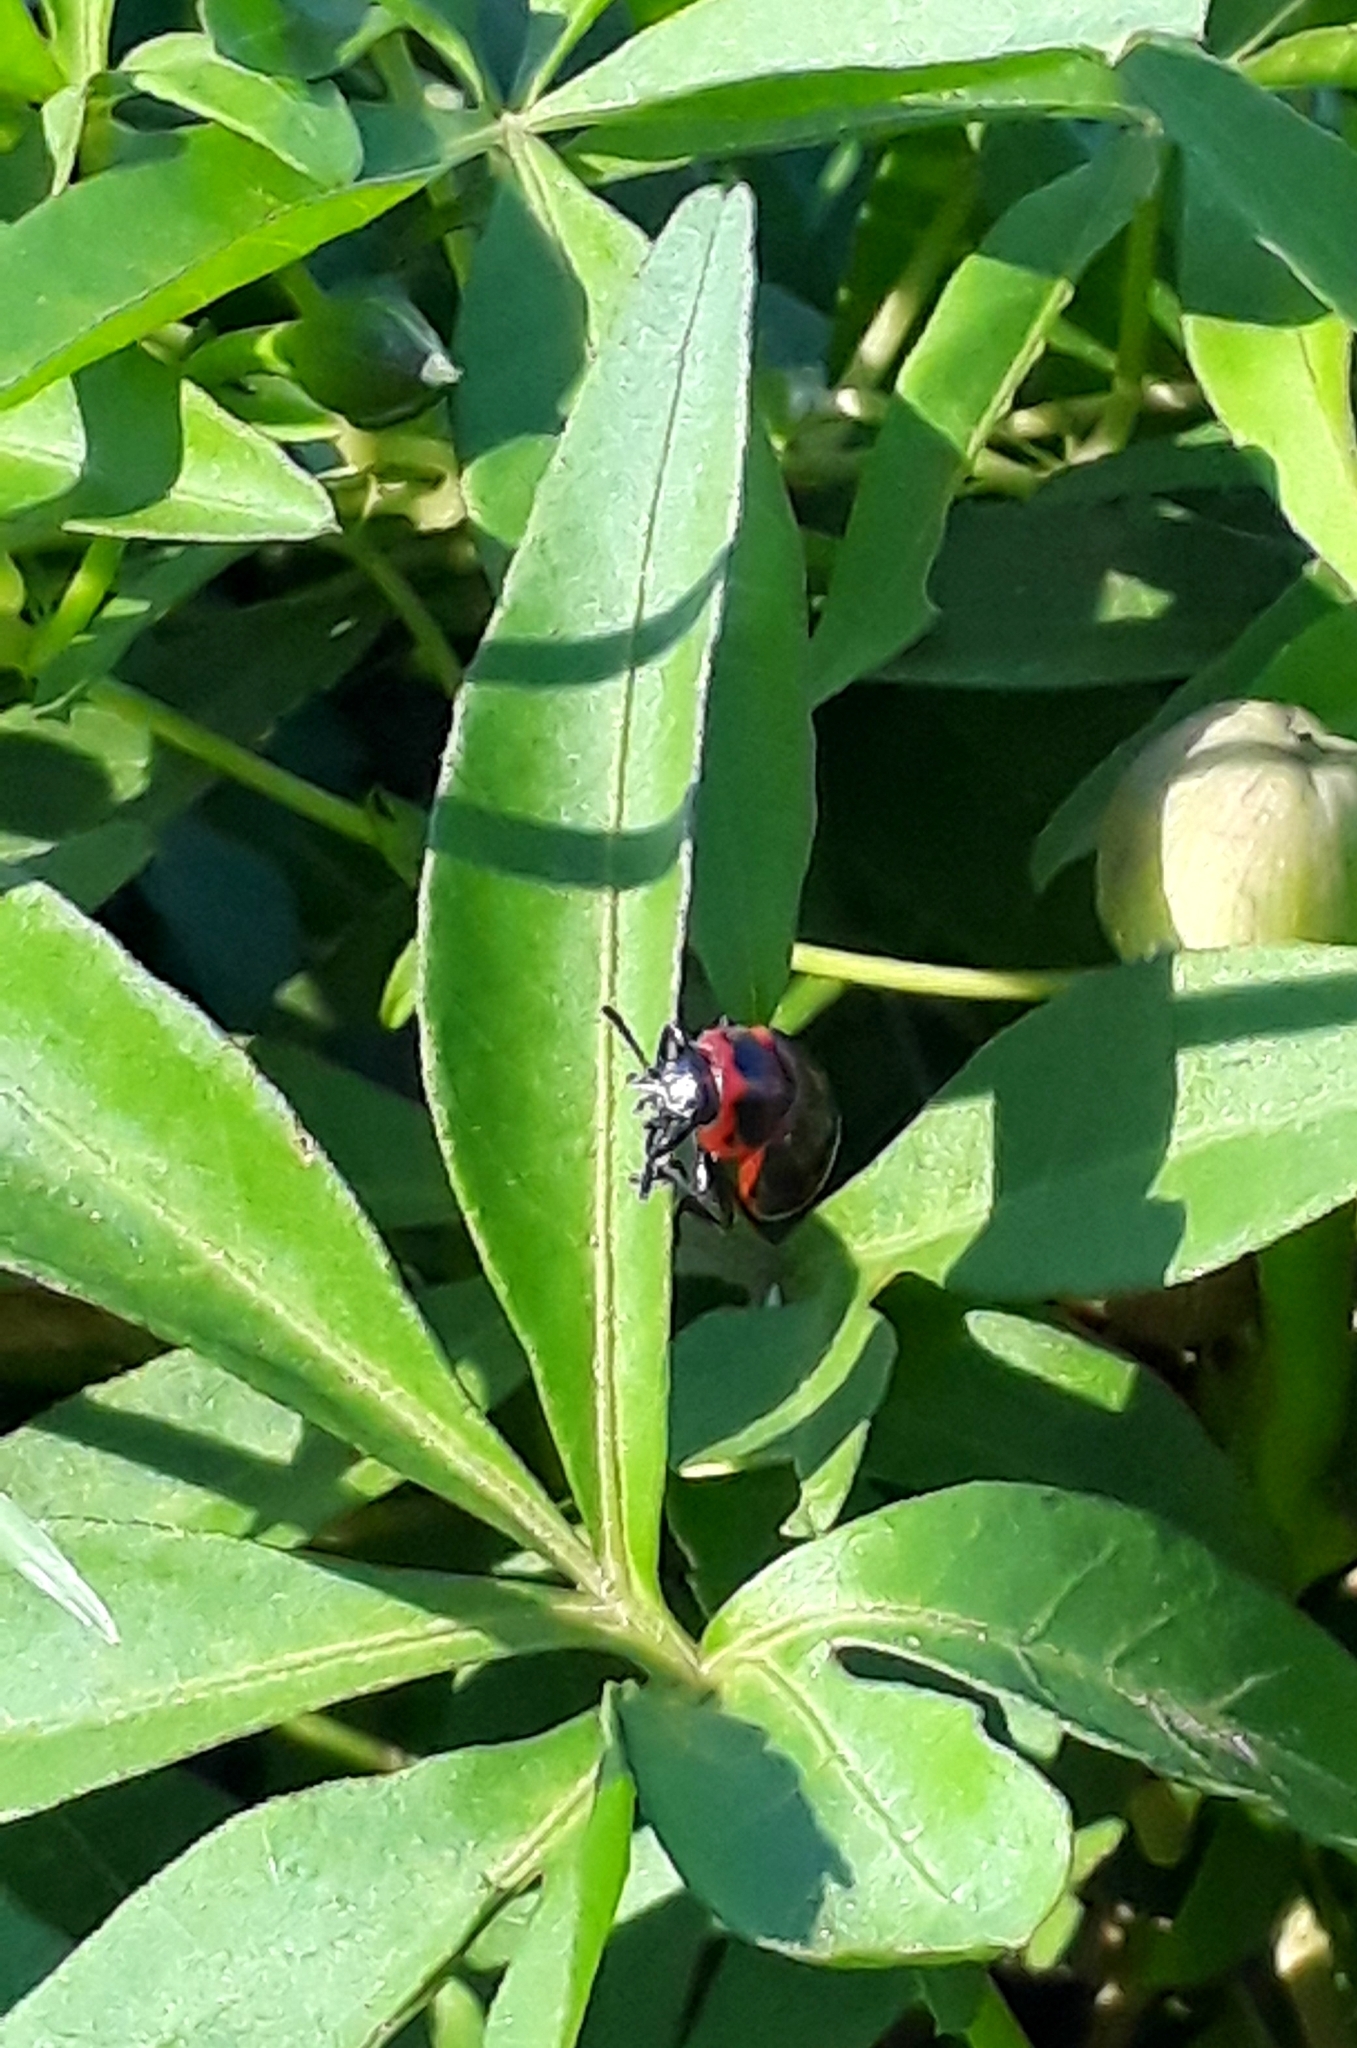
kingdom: Animalia
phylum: Arthropoda
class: Insecta
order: Coleoptera
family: Chrysomelidae
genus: Platyphora
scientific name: Platyphora
